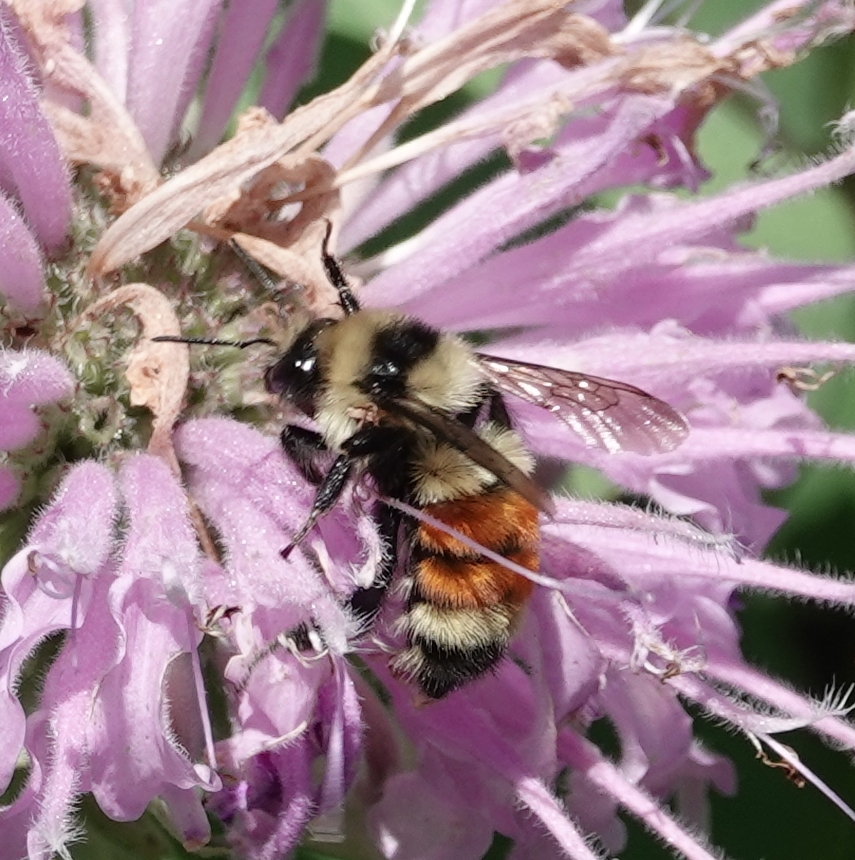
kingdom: Animalia
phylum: Arthropoda
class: Insecta
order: Hymenoptera
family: Apidae
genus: Bombus
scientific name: Bombus huntii
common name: Hunt bumble bee
